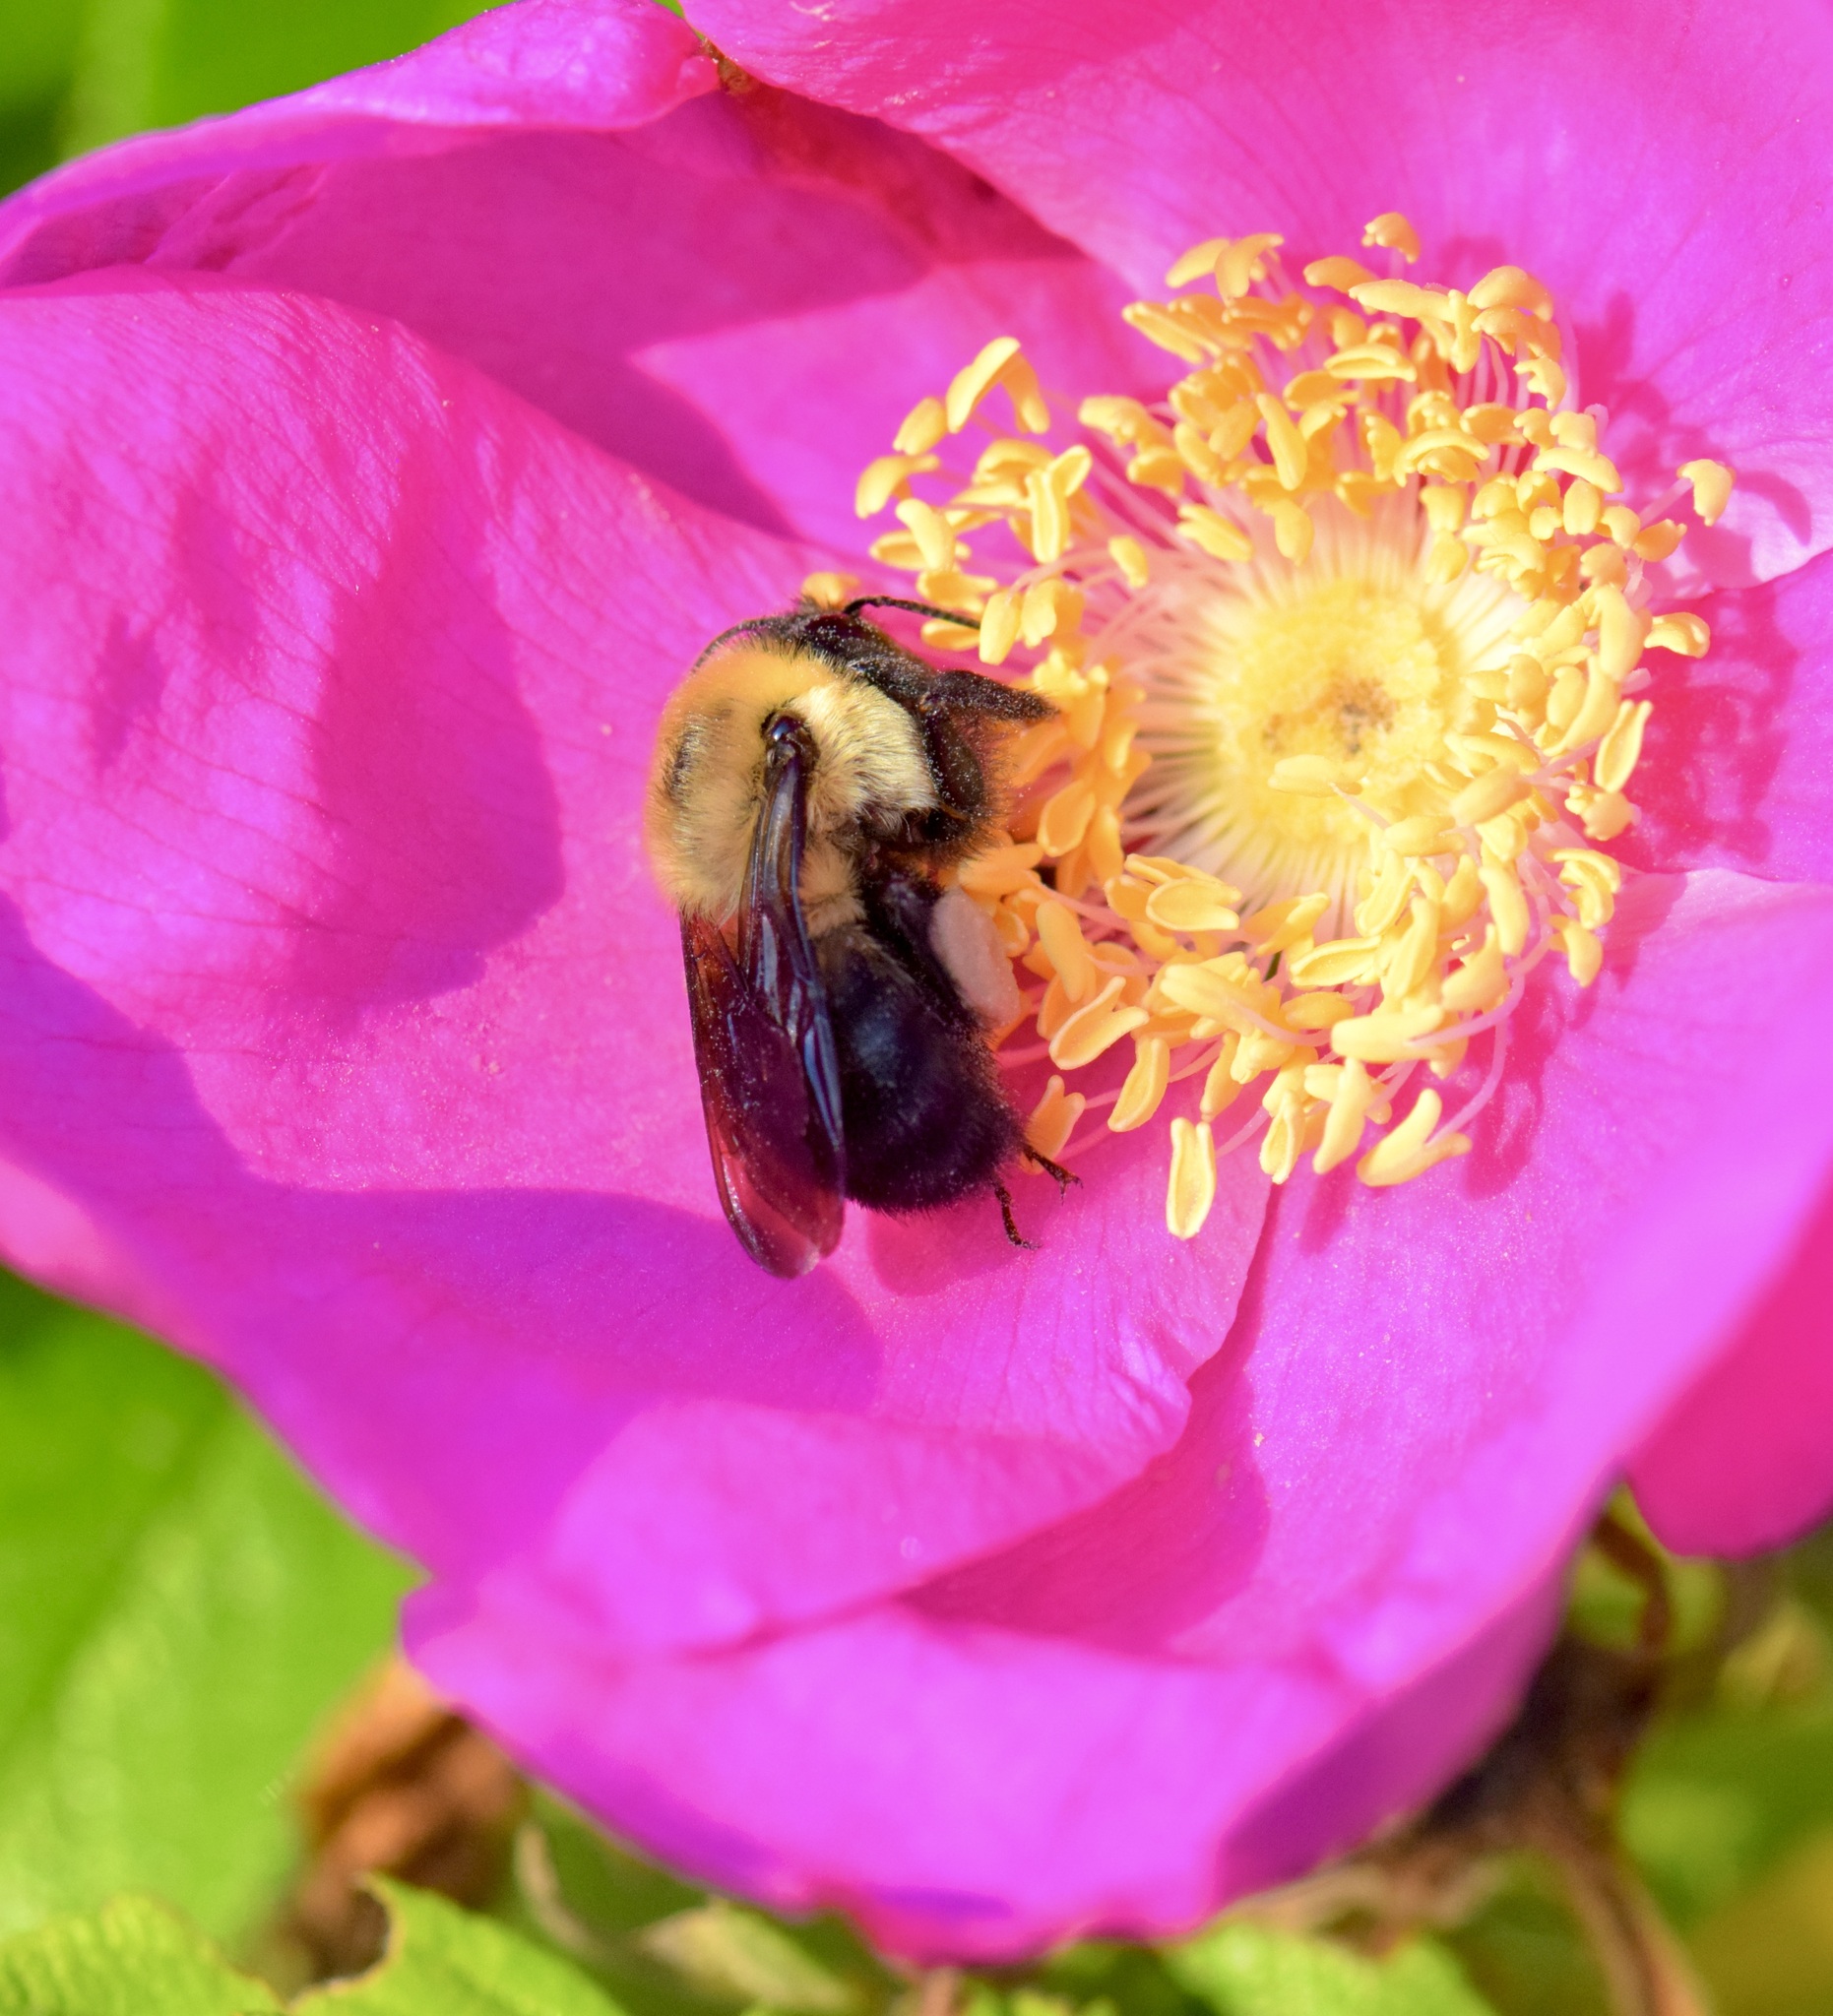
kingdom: Animalia
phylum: Arthropoda
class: Insecta
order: Hymenoptera
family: Apidae
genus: Bombus
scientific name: Bombus griseocollis
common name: Brown-belted bumble bee
